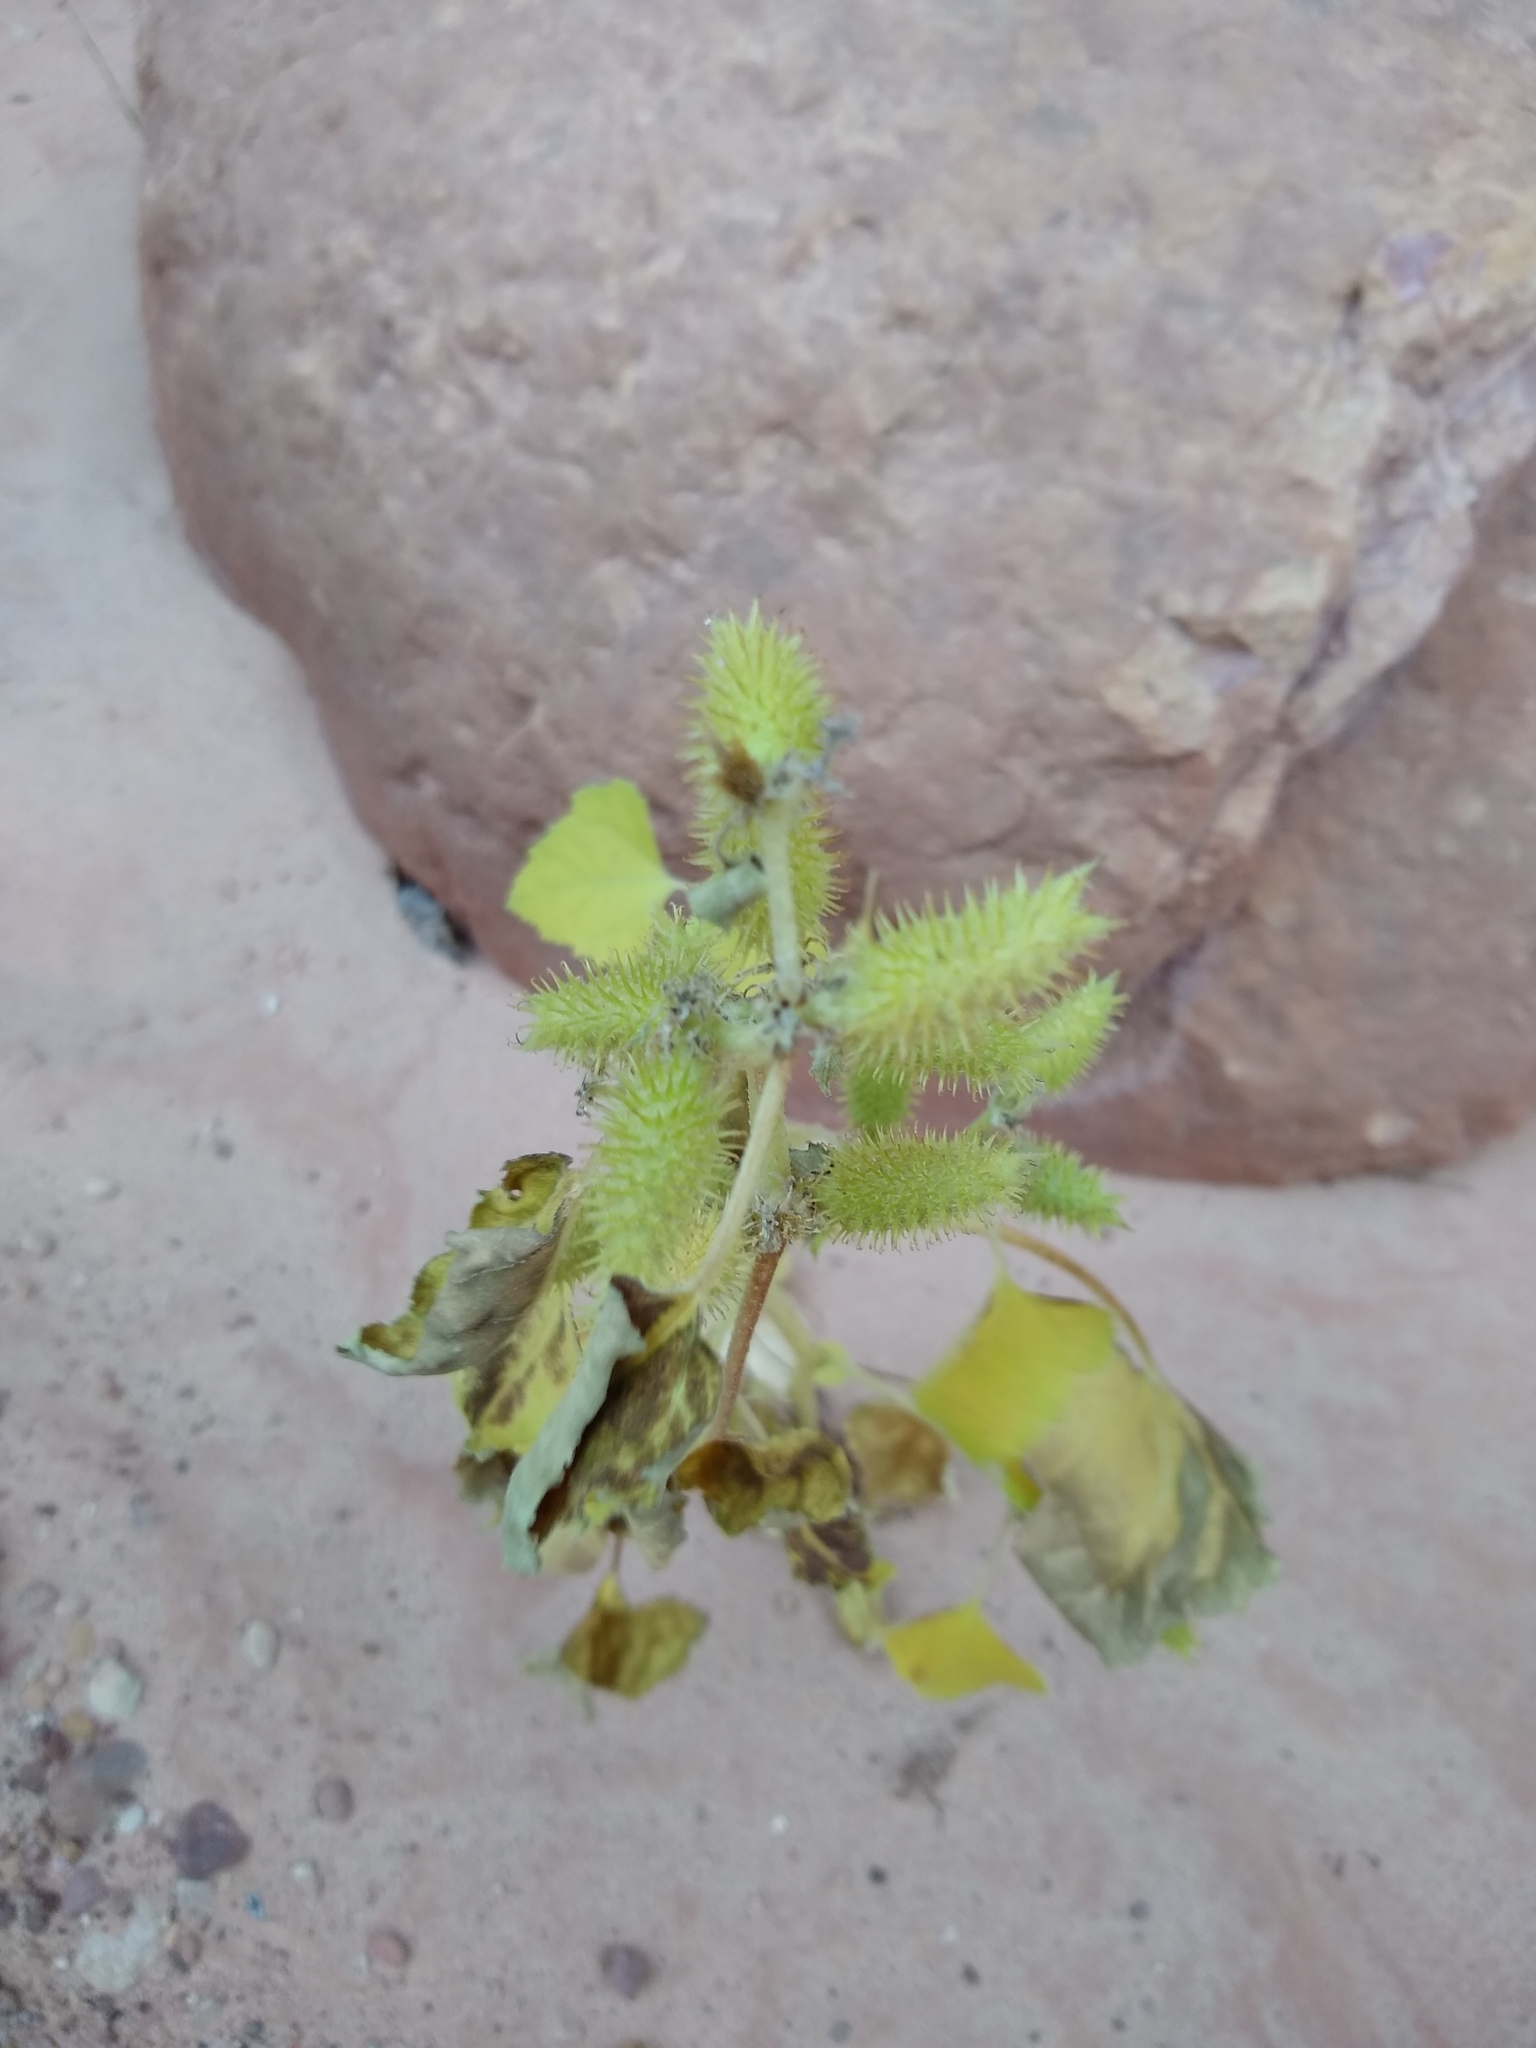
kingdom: Plantae
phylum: Tracheophyta
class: Magnoliopsida
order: Asterales
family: Asteraceae
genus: Xanthium
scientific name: Xanthium strumarium
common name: Rough cocklebur
